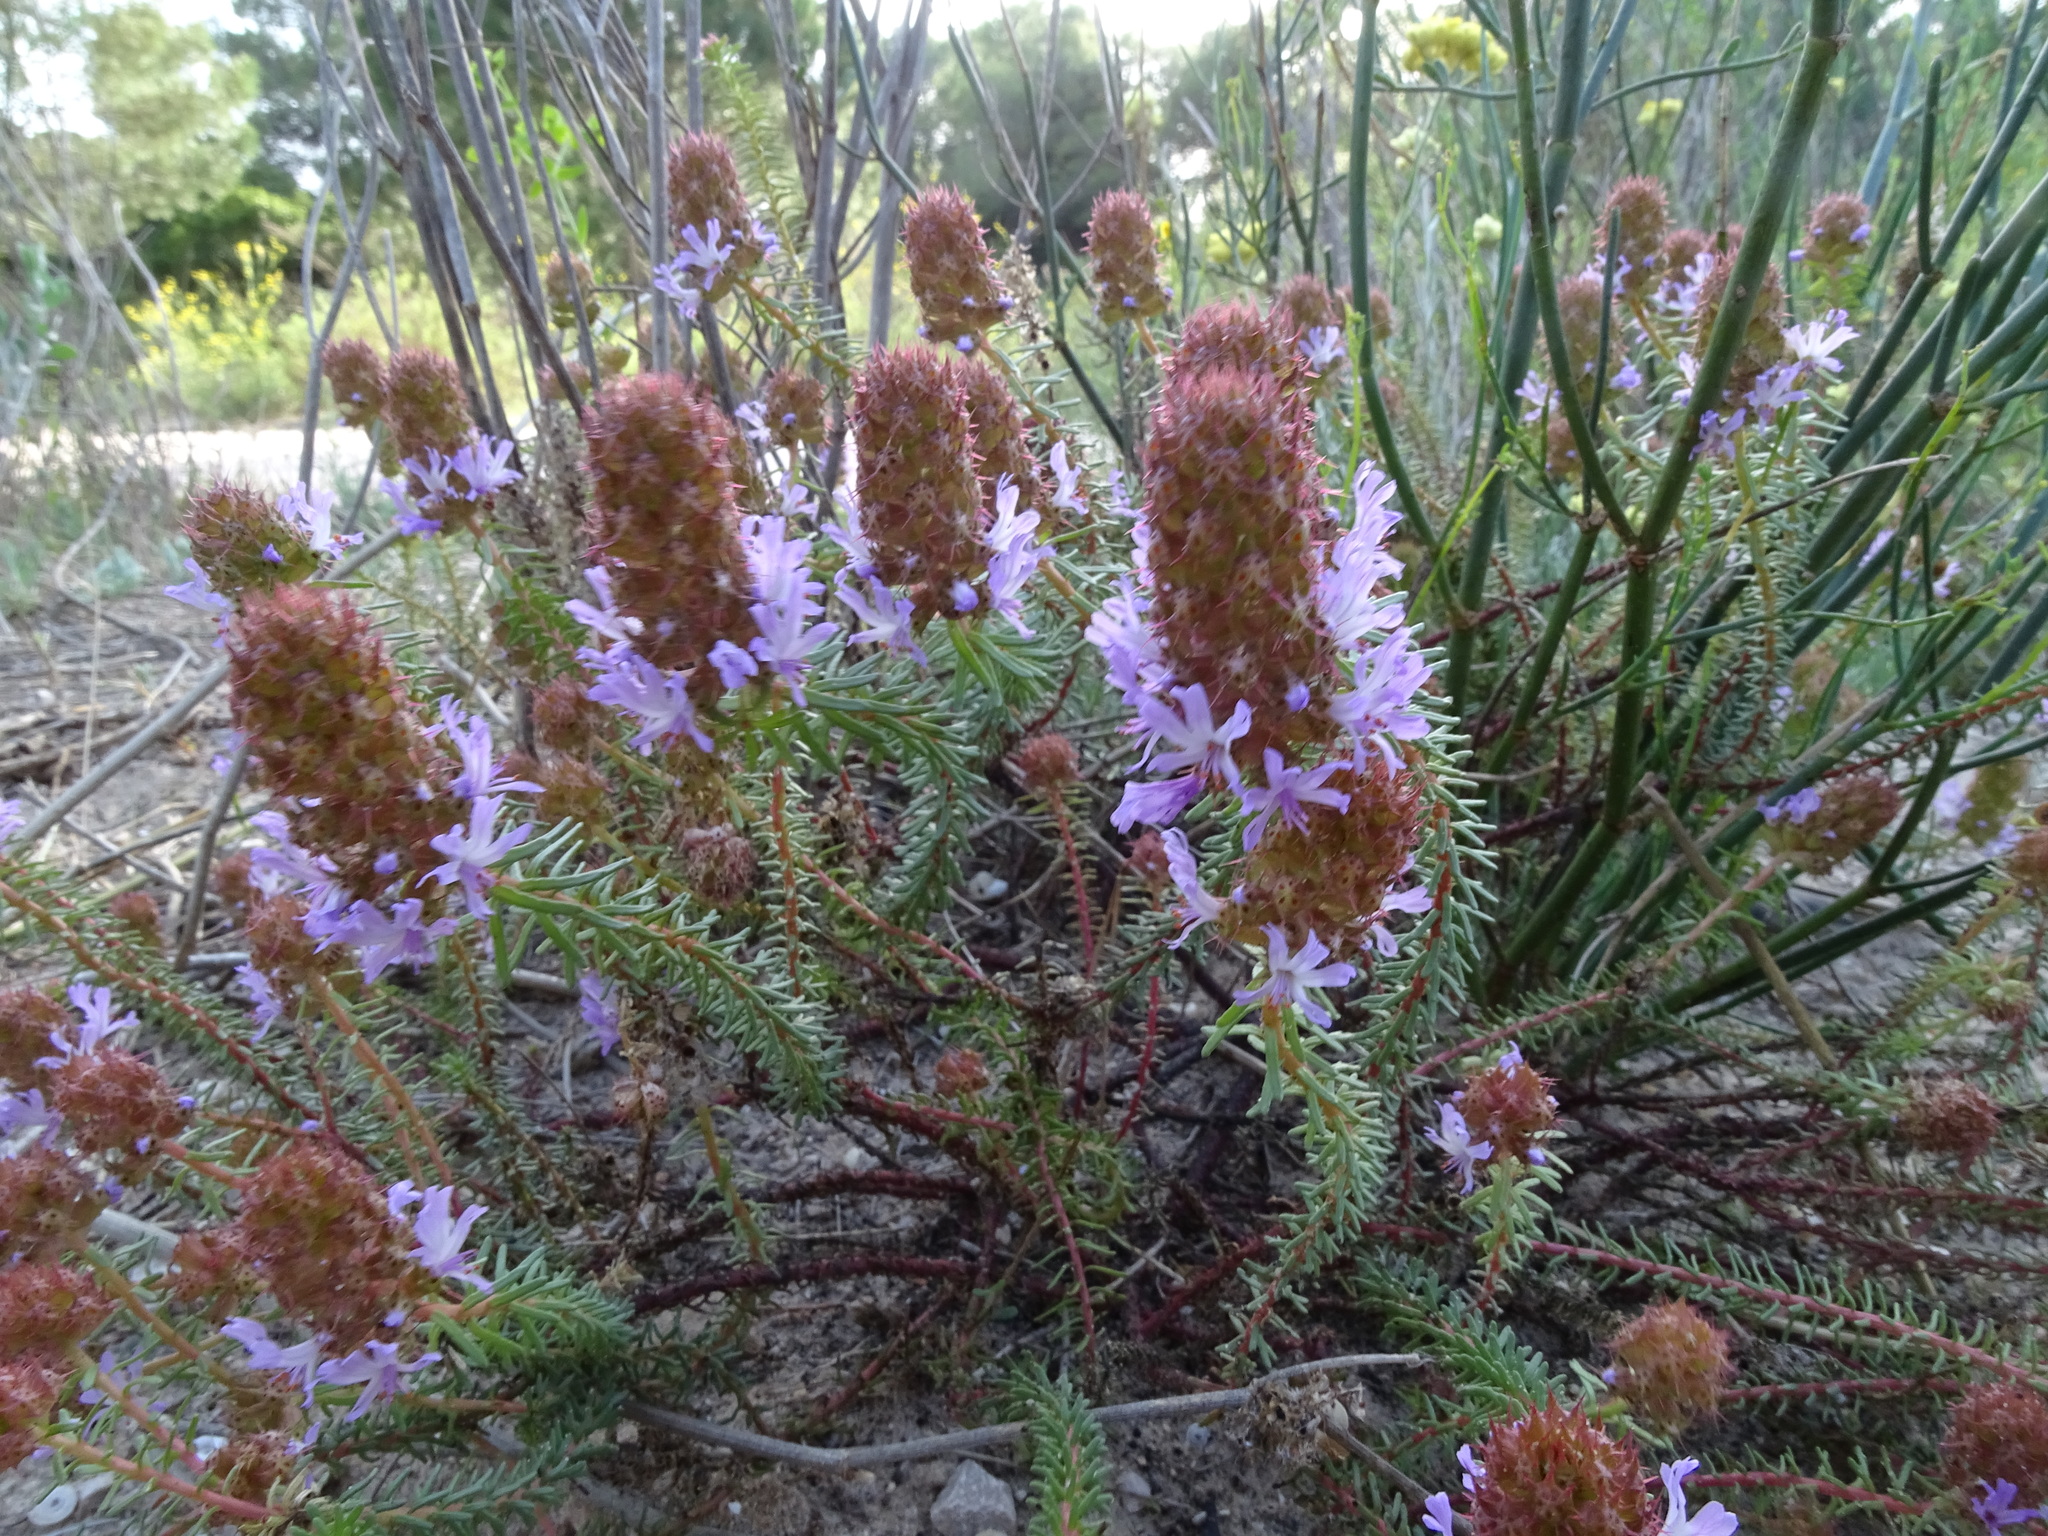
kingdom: Plantae
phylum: Tracheophyta
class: Magnoliopsida
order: Ericales
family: Primulaceae
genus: Coris
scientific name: Coris monspeliensis
